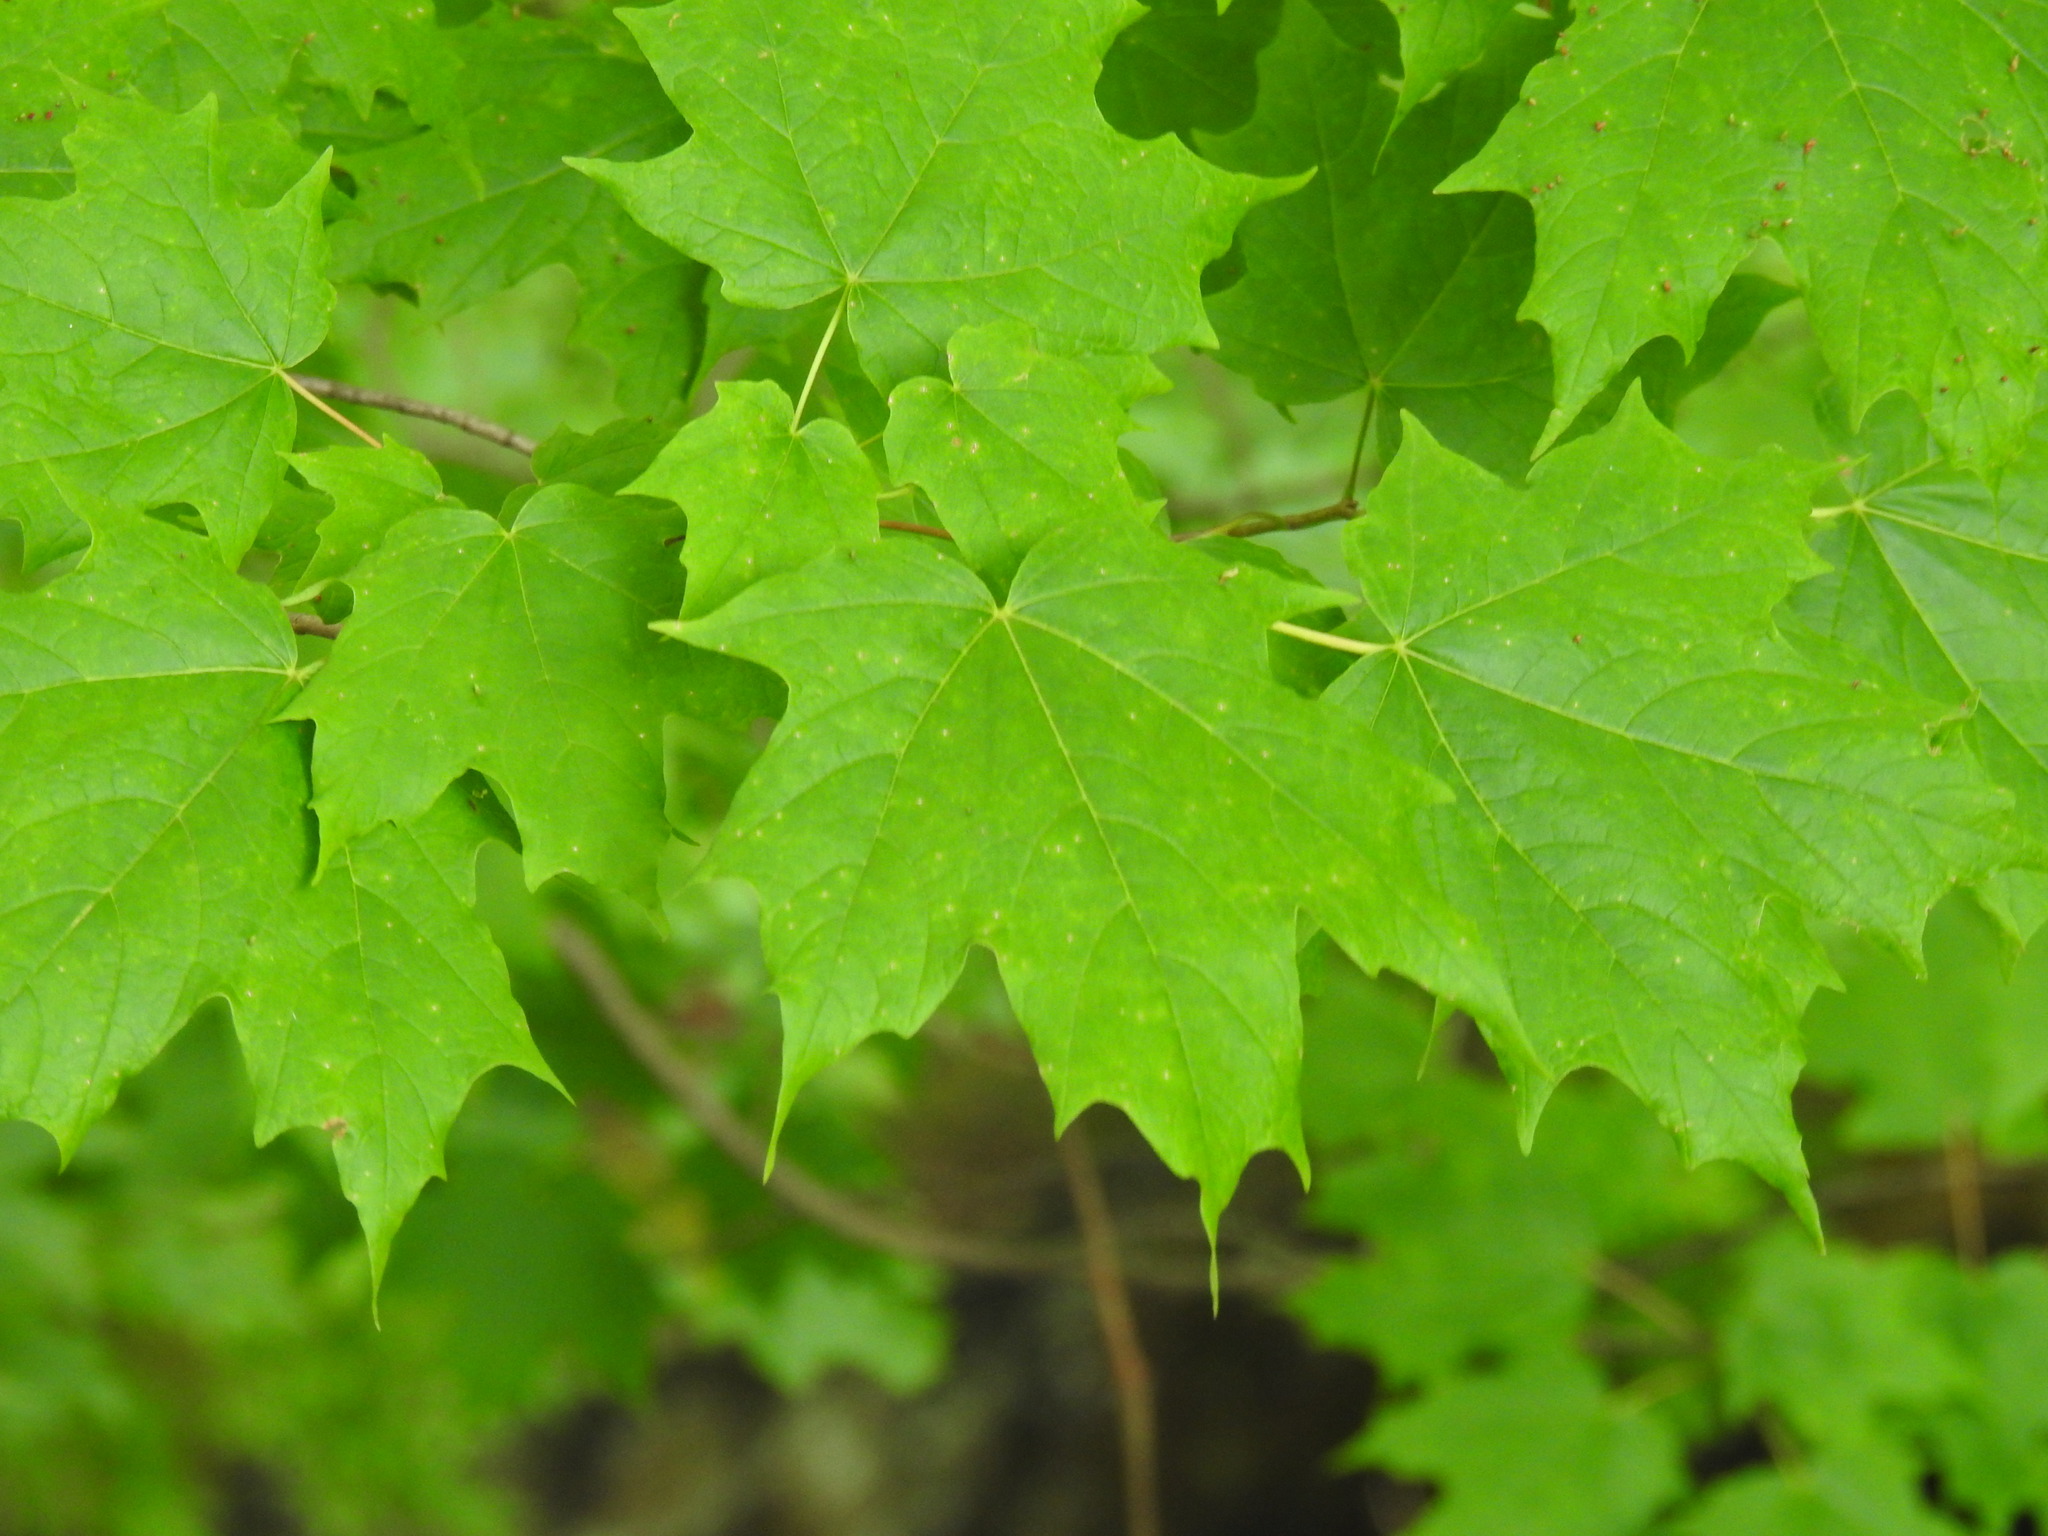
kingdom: Plantae
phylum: Tracheophyta
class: Magnoliopsida
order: Sapindales
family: Sapindaceae
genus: Acer
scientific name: Acer saccharum
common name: Sugar maple
